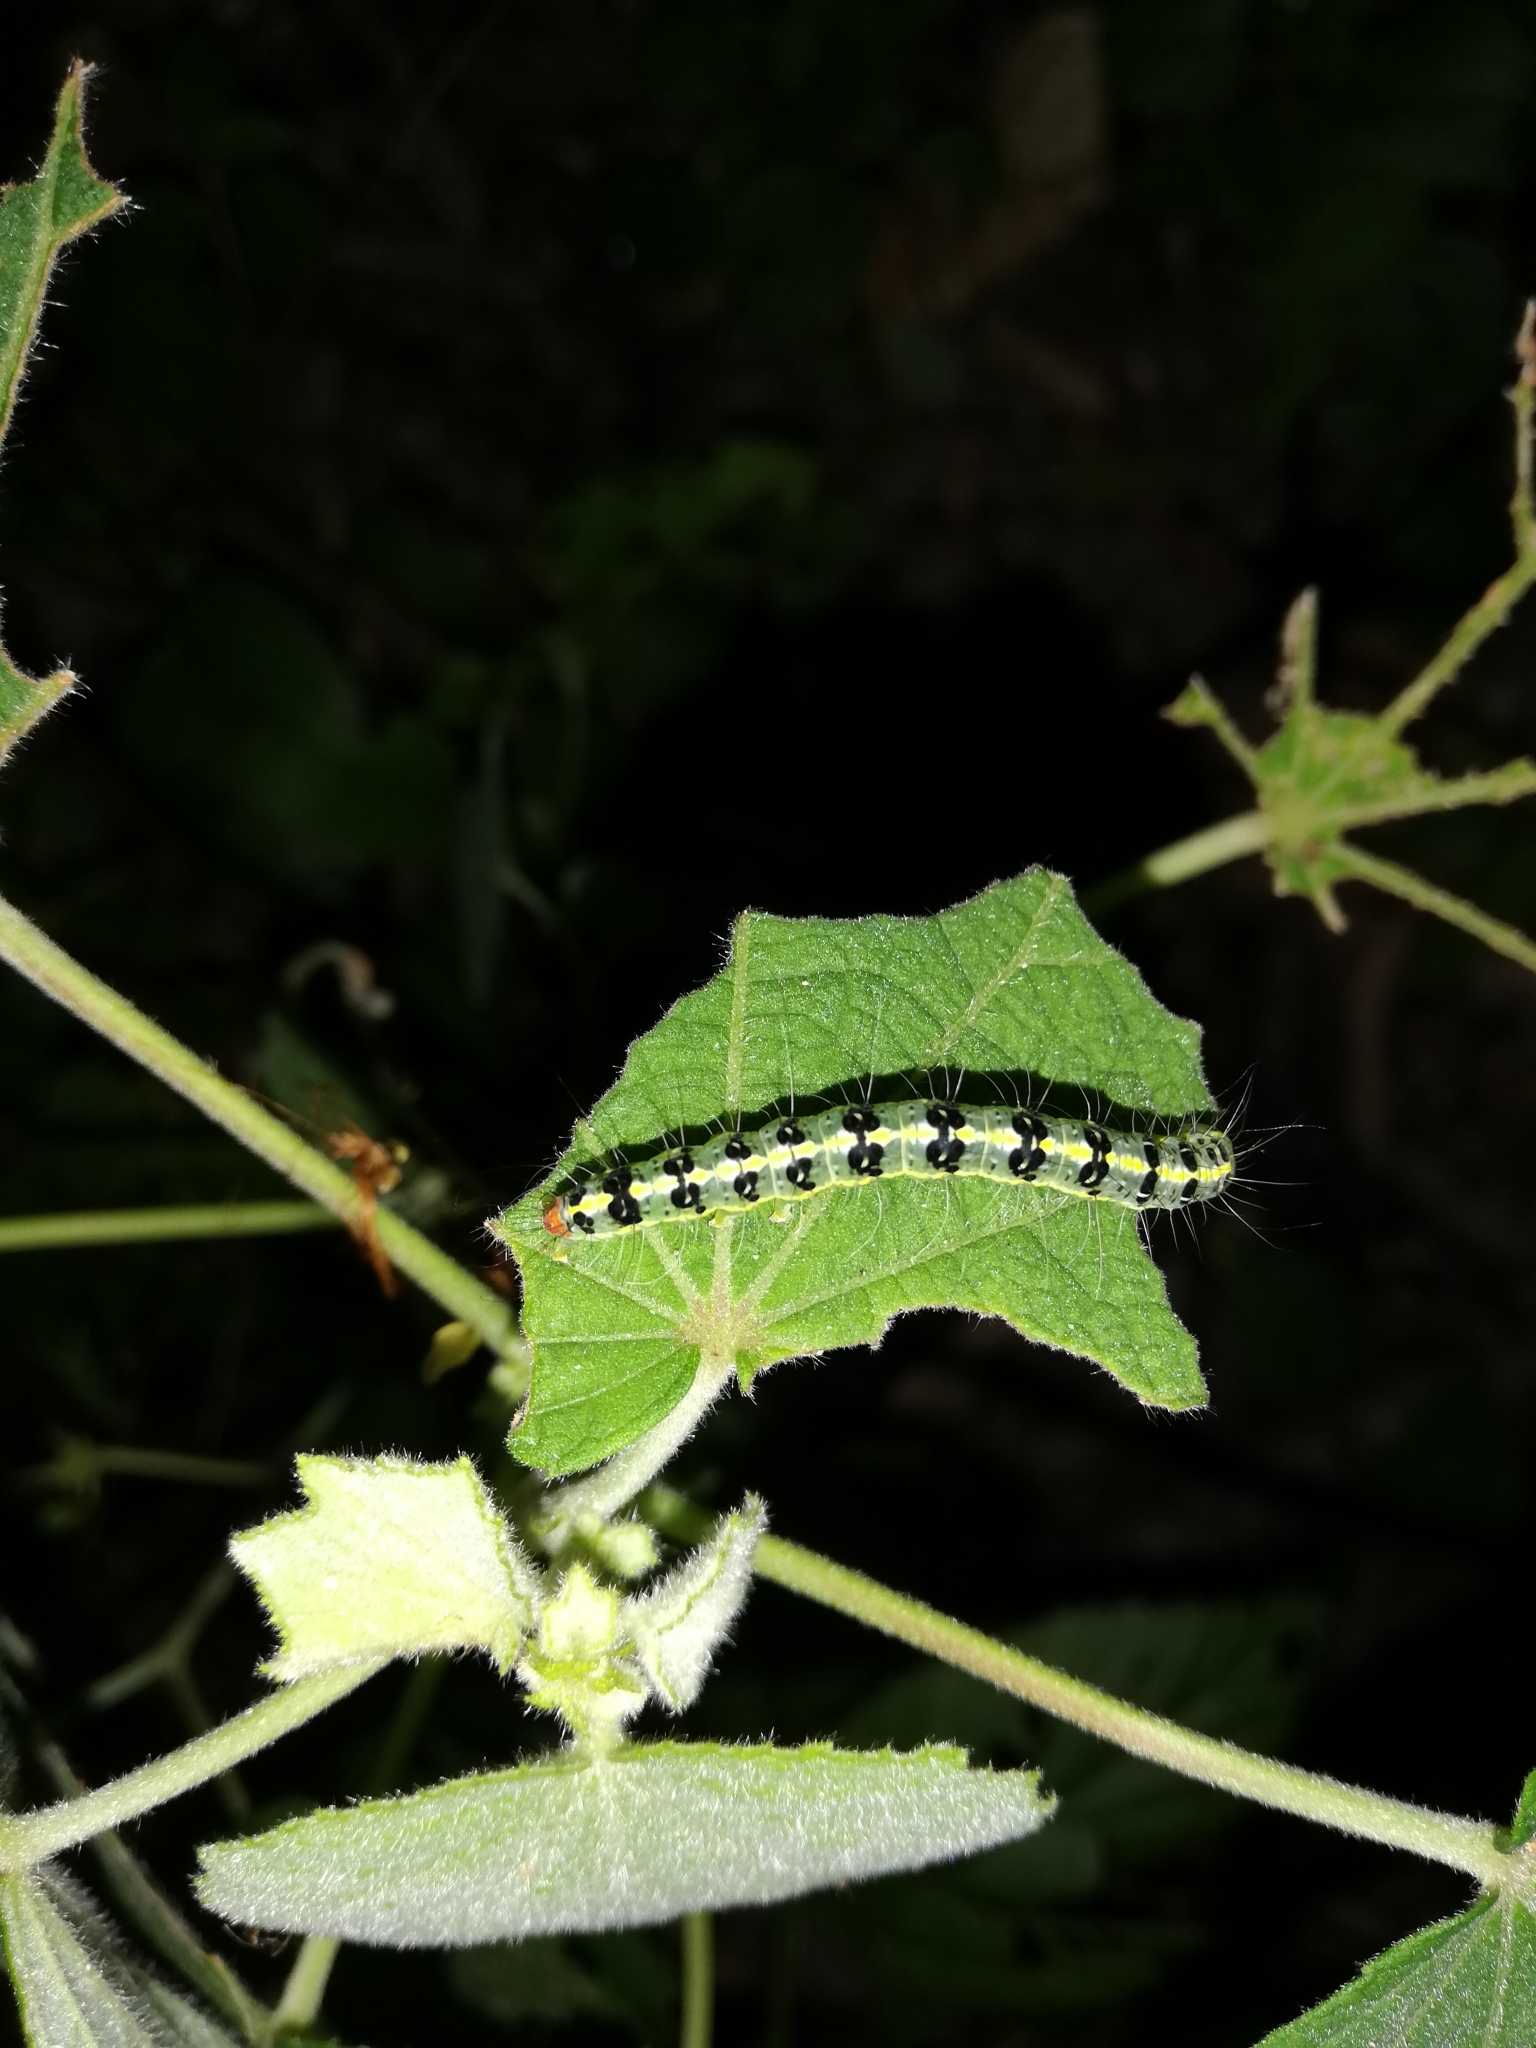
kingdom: Animalia
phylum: Arthropoda
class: Insecta
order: Lepidoptera
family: Nolidae
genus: Xanthodes
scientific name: Xanthodes transversa
